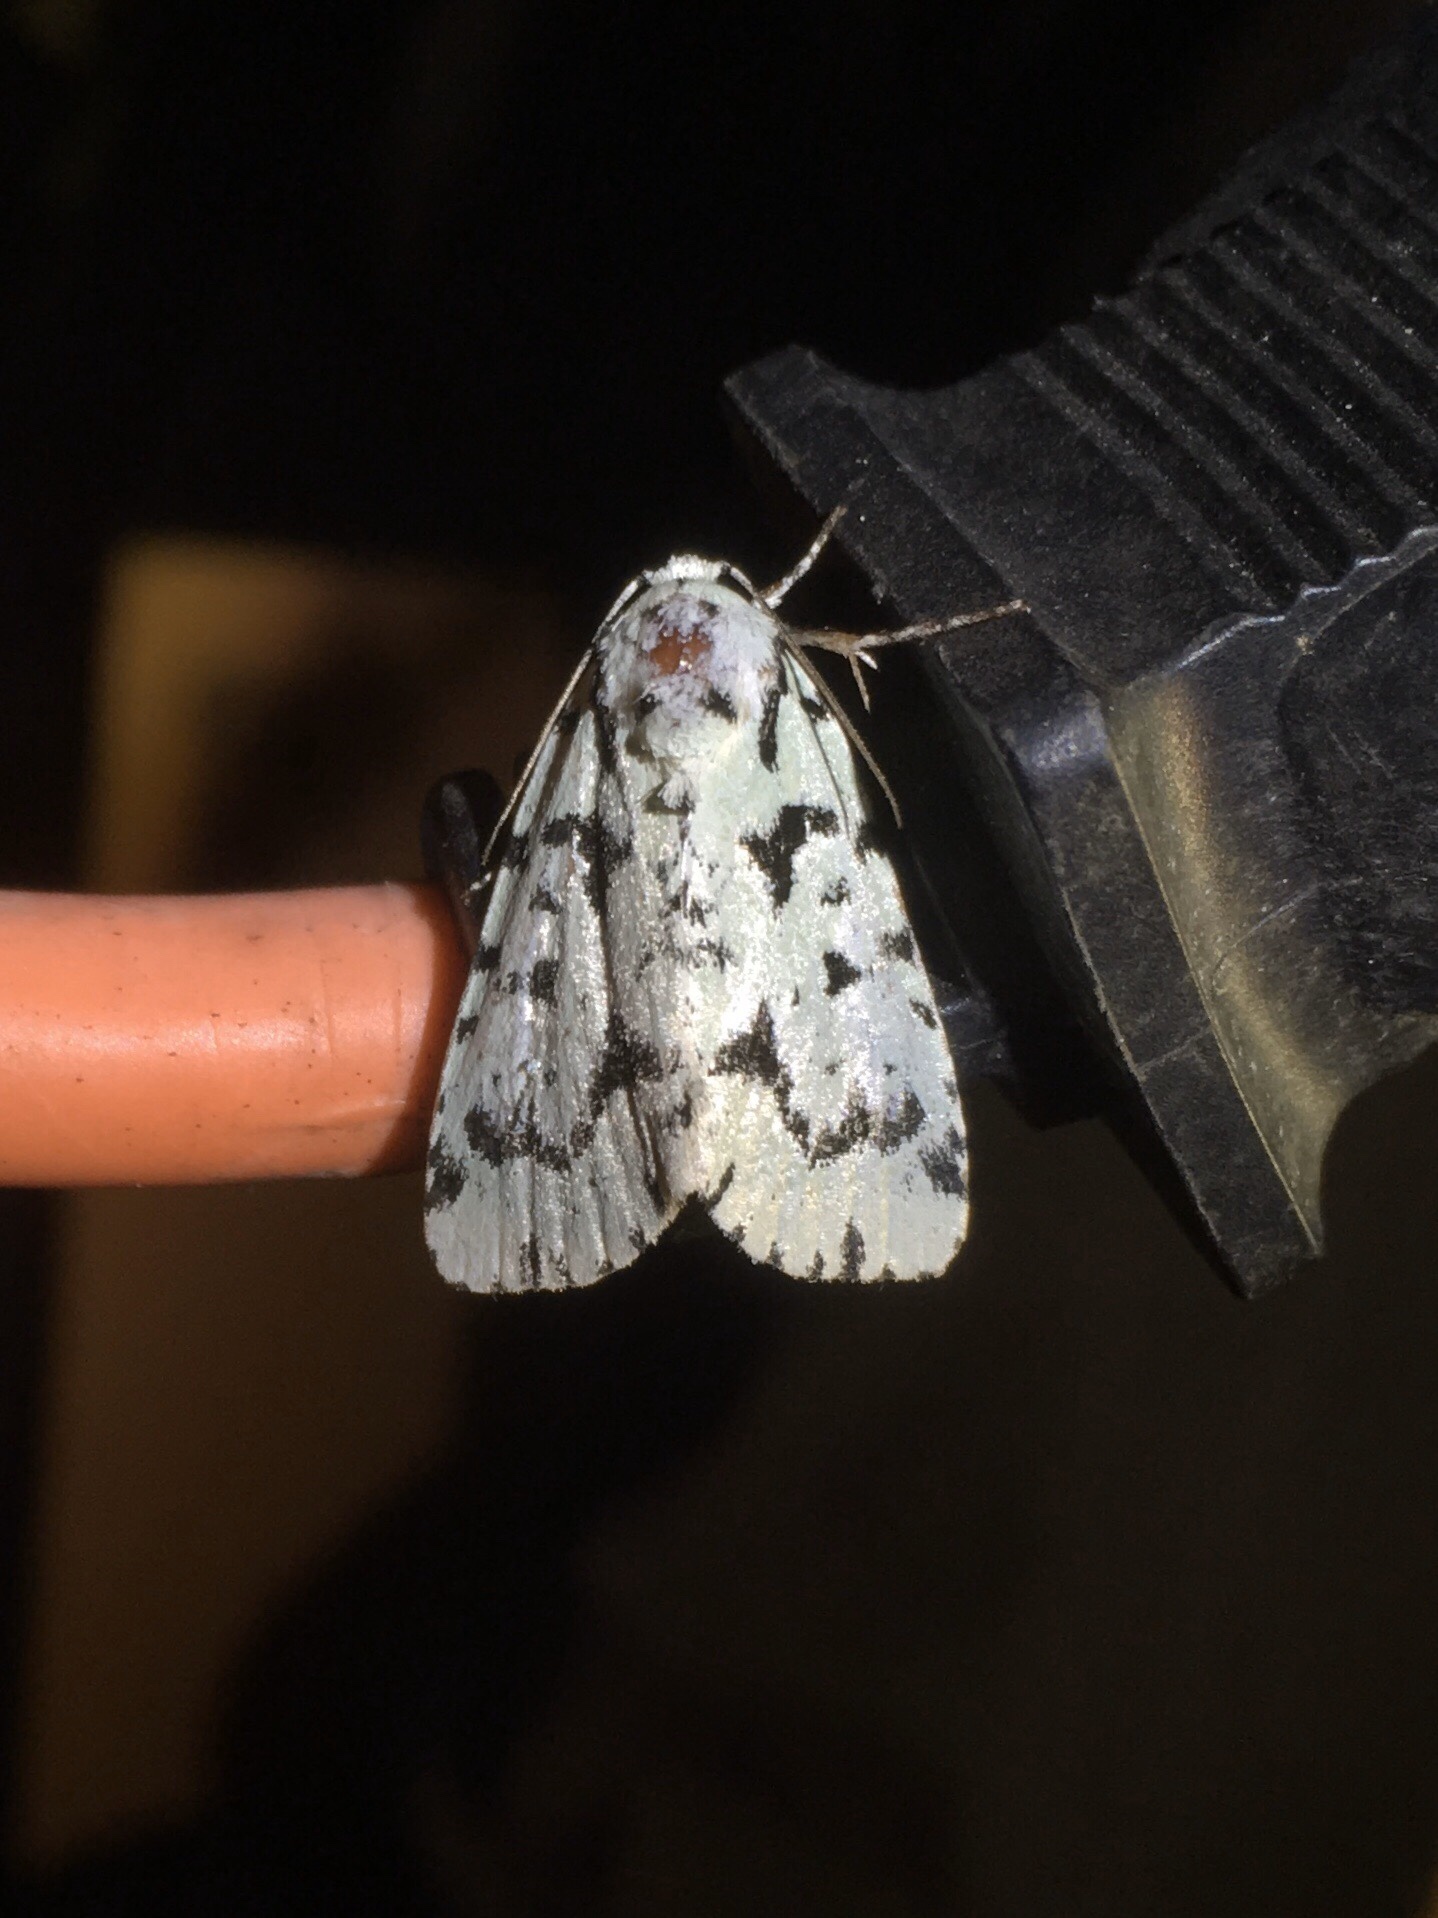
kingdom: Animalia
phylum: Arthropoda
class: Insecta
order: Lepidoptera
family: Noctuidae
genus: Acronicta
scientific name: Acronicta fallax
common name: Green marvel
